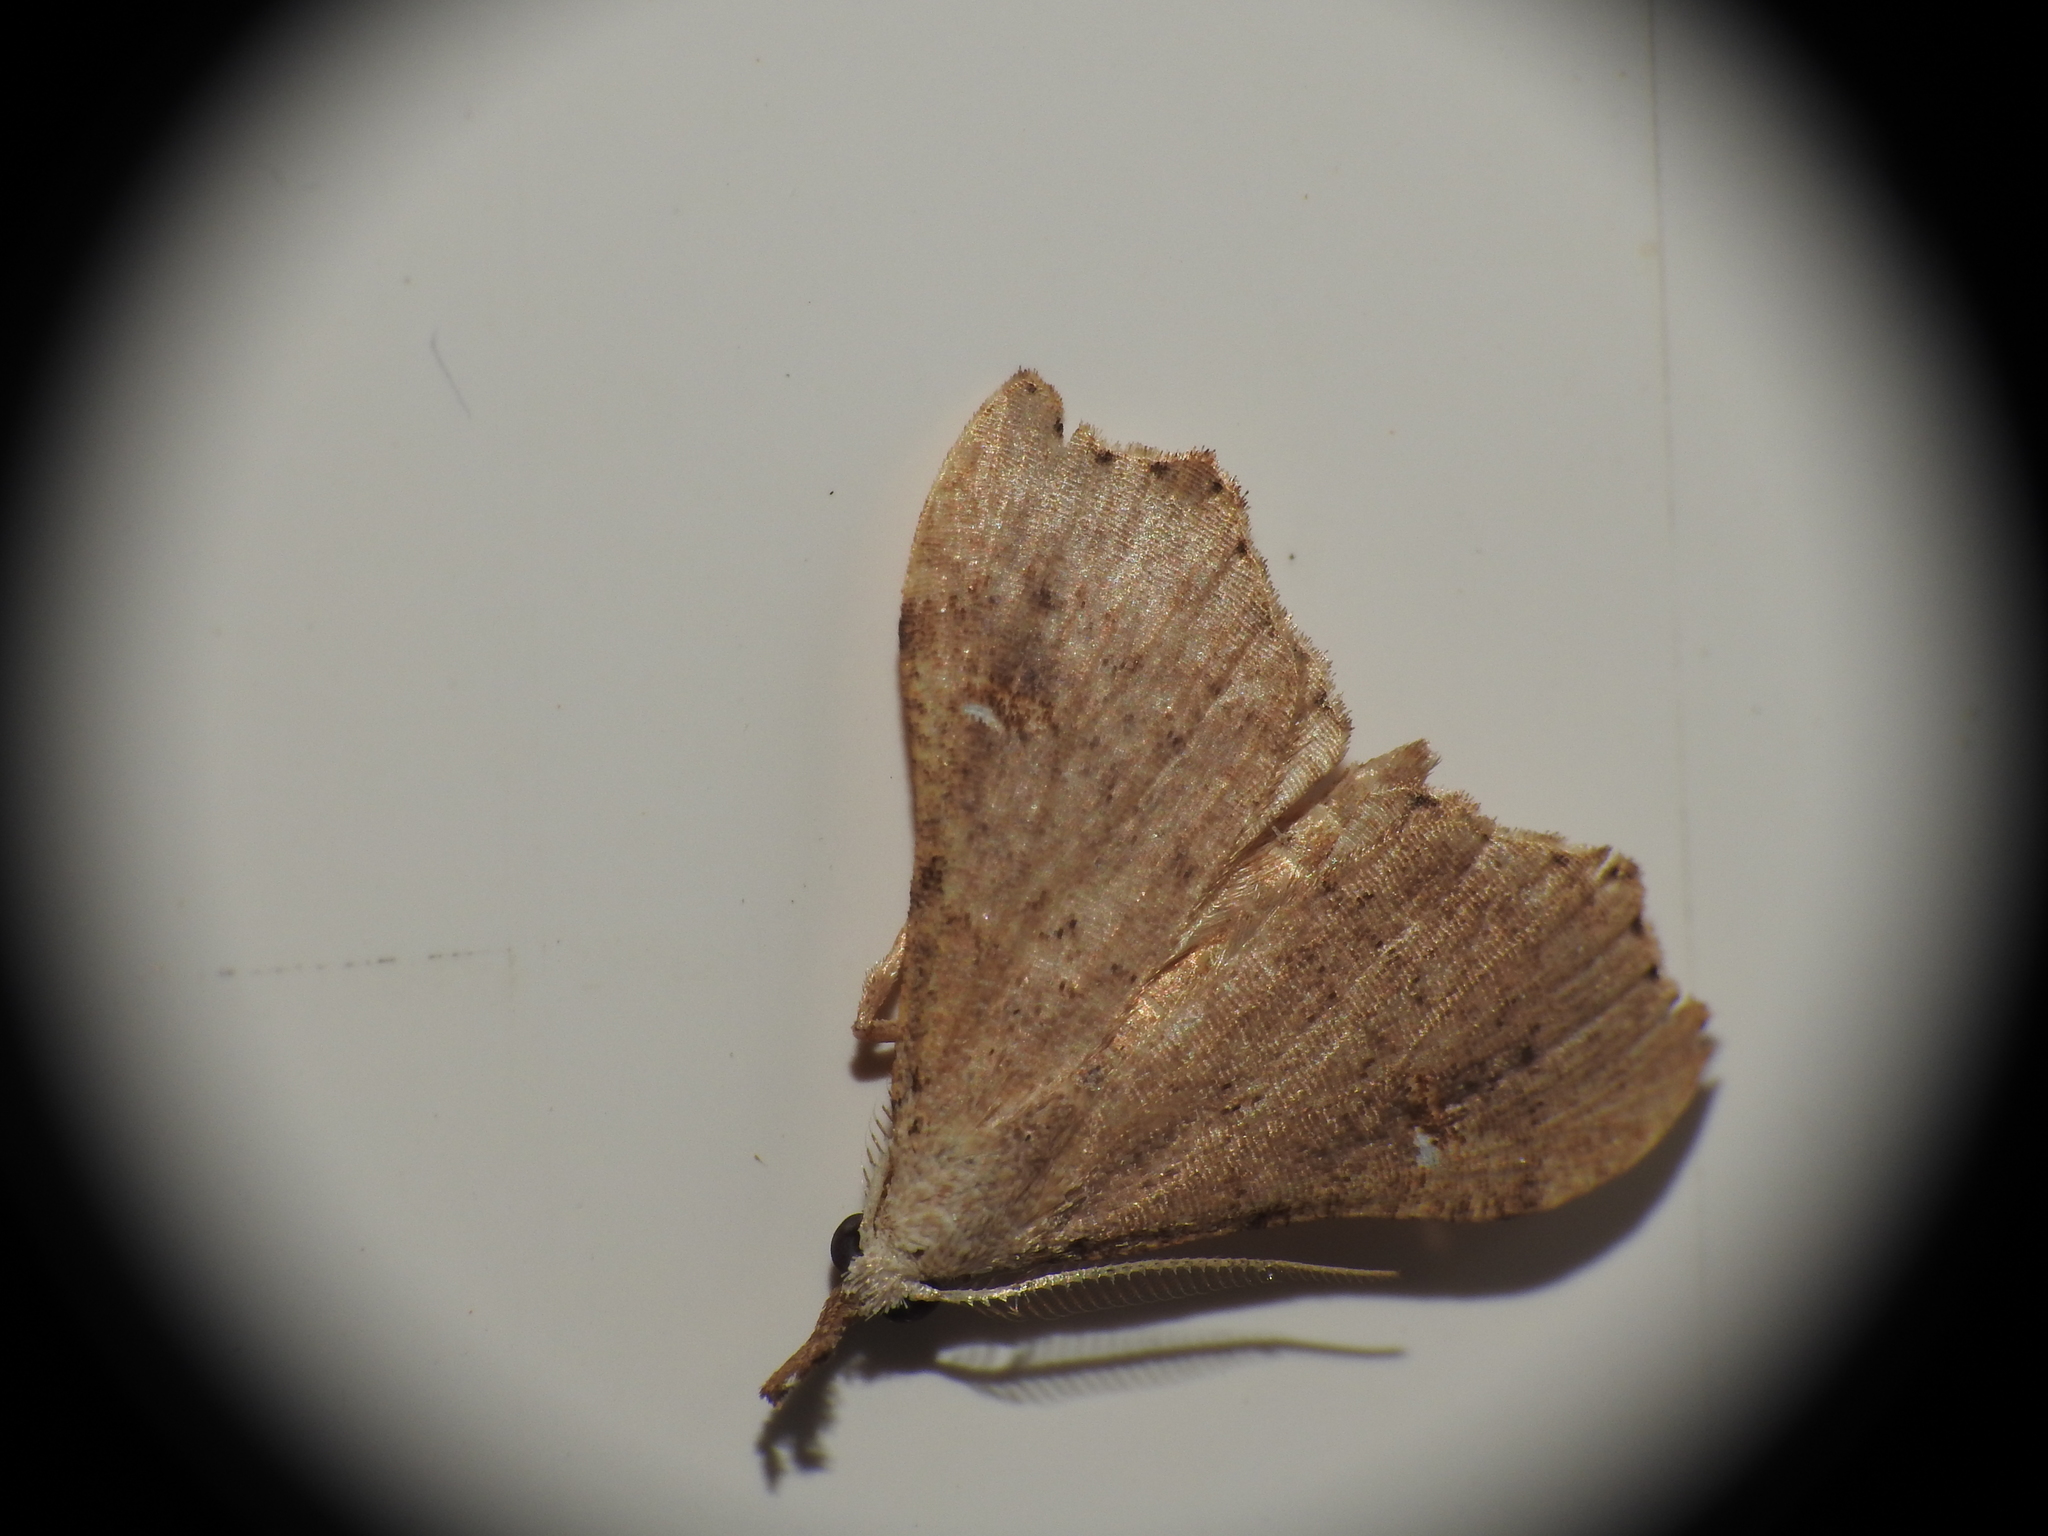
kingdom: Animalia
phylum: Arthropoda
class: Insecta
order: Lepidoptera
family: Erebidae
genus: Redectis
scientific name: Redectis vitrea
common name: White-spotted redectis
